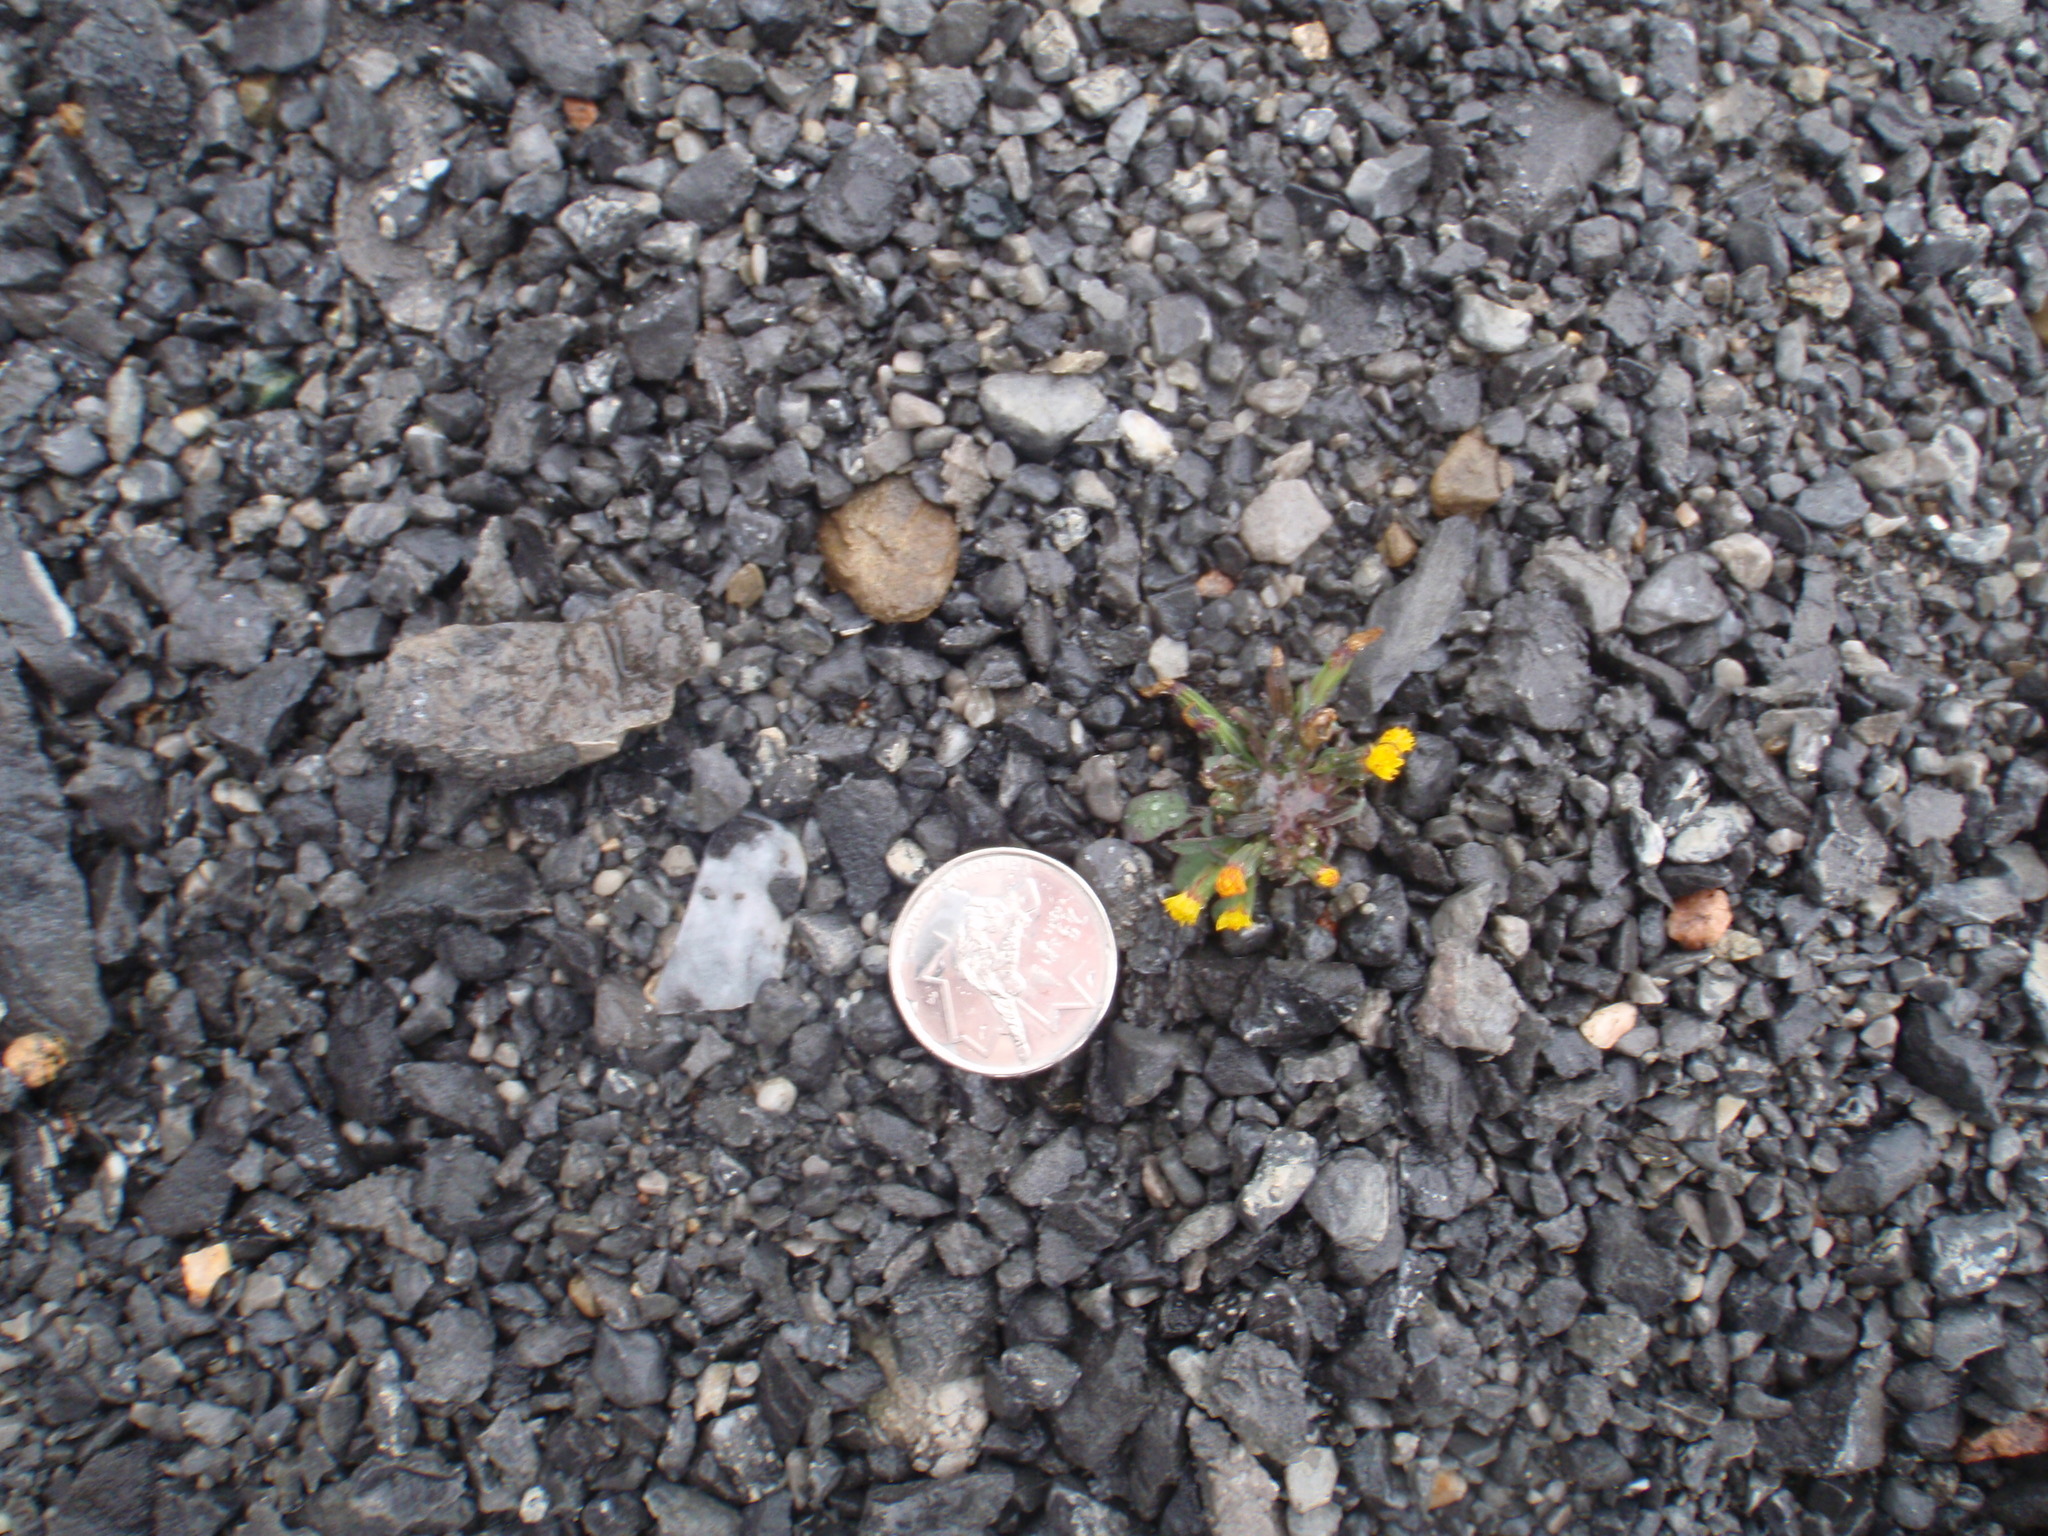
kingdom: Plantae
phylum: Tracheophyta
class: Magnoliopsida
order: Asterales
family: Asteraceae
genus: Askellia
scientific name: Askellia pygmaea
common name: Dwarf alpine hawksbeard
